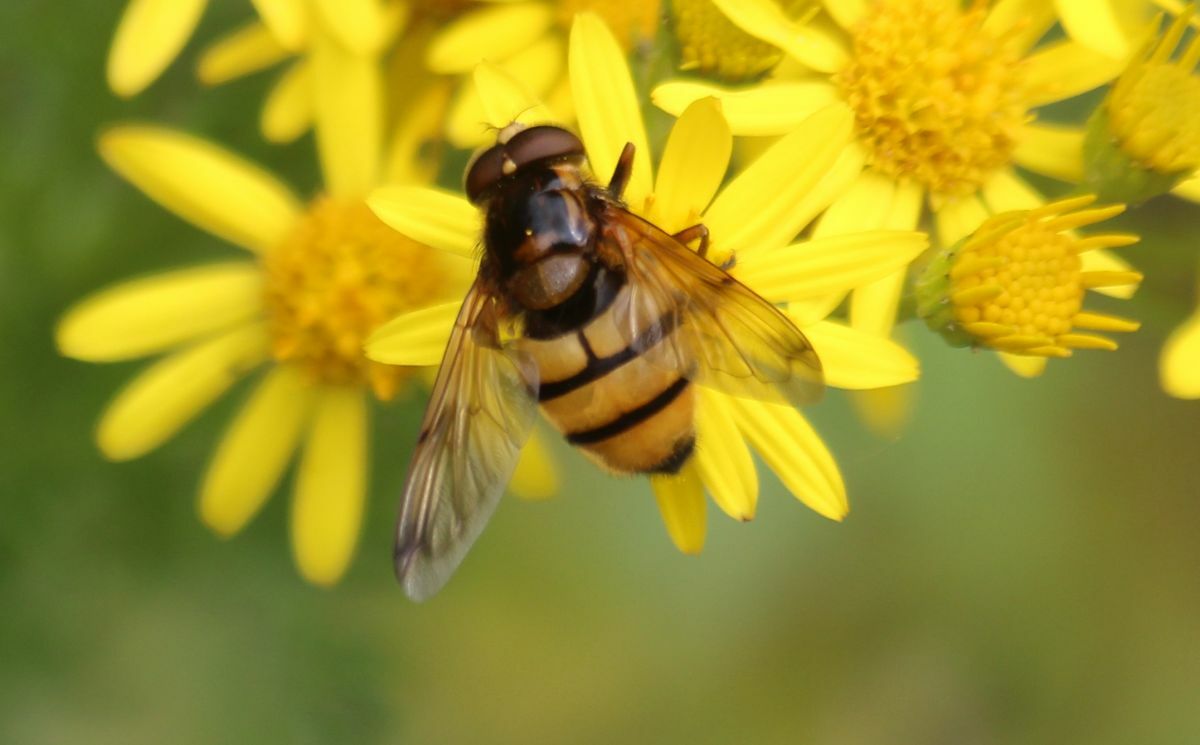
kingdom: Animalia
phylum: Arthropoda
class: Insecta
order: Diptera
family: Syrphidae
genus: Volucella
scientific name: Volucella inanis
